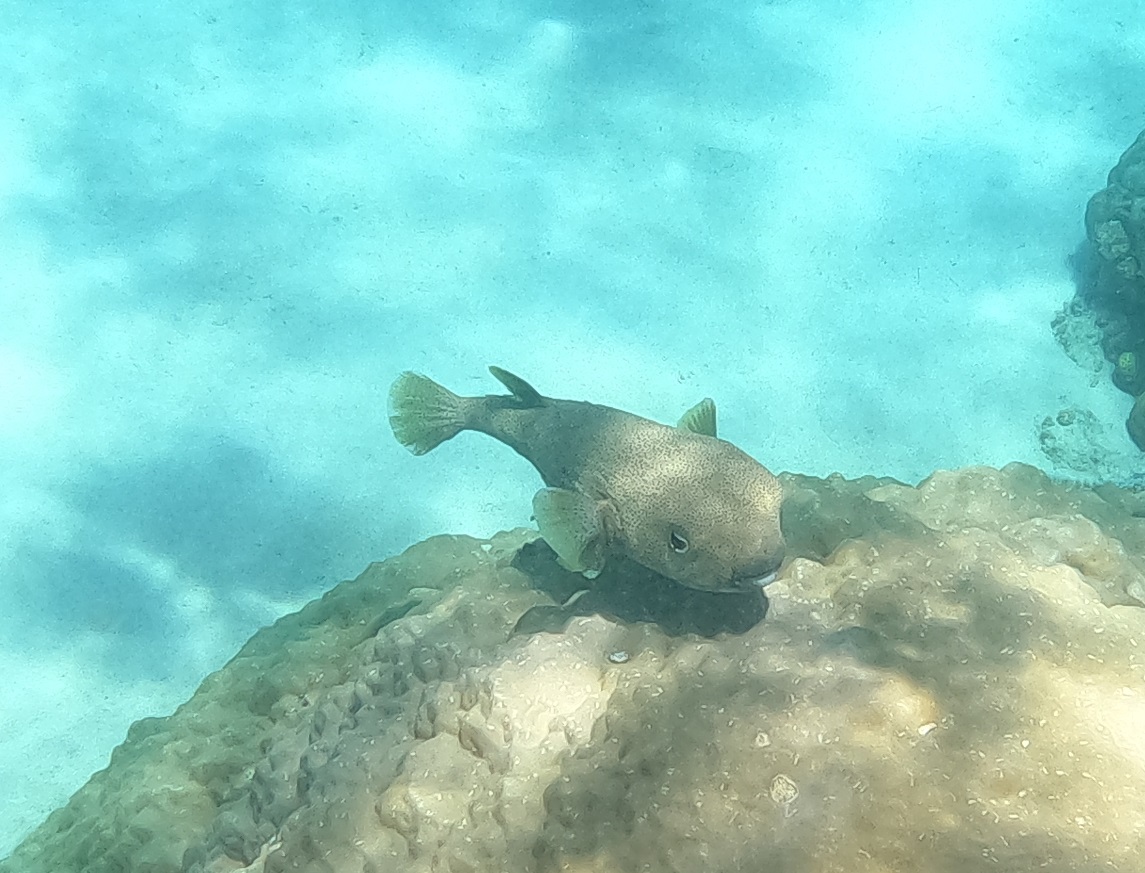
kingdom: Animalia
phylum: Chordata
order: Tetraodontiformes
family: Diodontidae
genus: Diodon
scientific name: Diodon hystrix
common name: Giant porcupinefish
